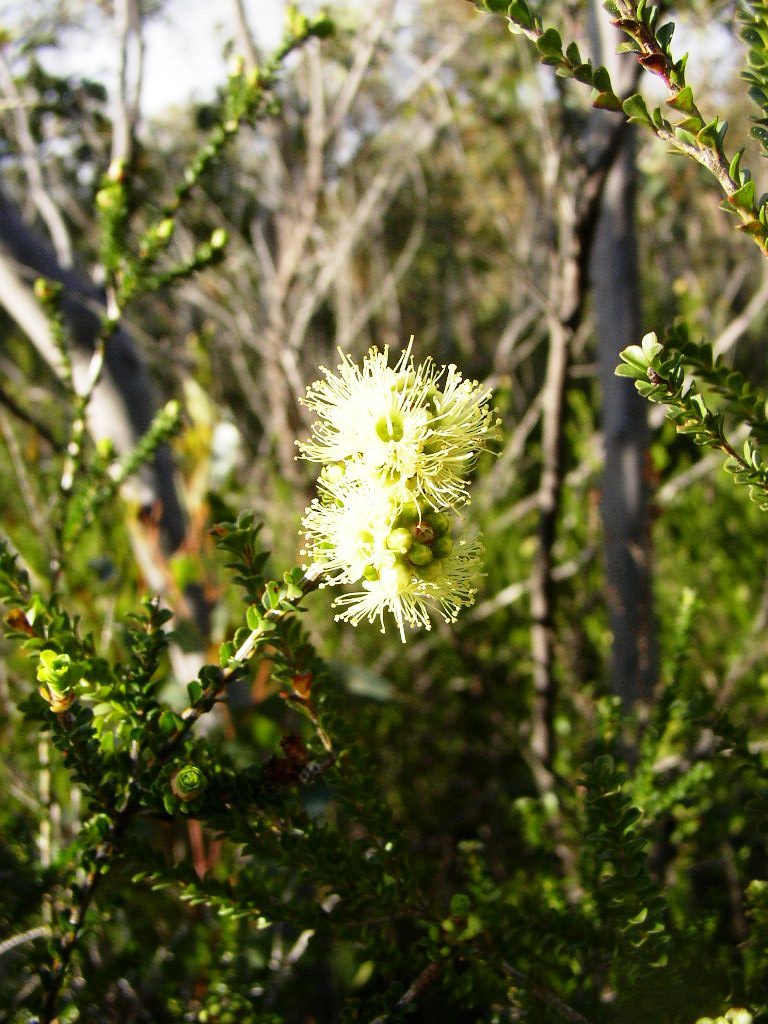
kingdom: Plantae
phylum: Tracheophyta
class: Magnoliopsida
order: Myrtales
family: Myrtaceae
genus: Kunzea
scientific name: Kunzea montana
